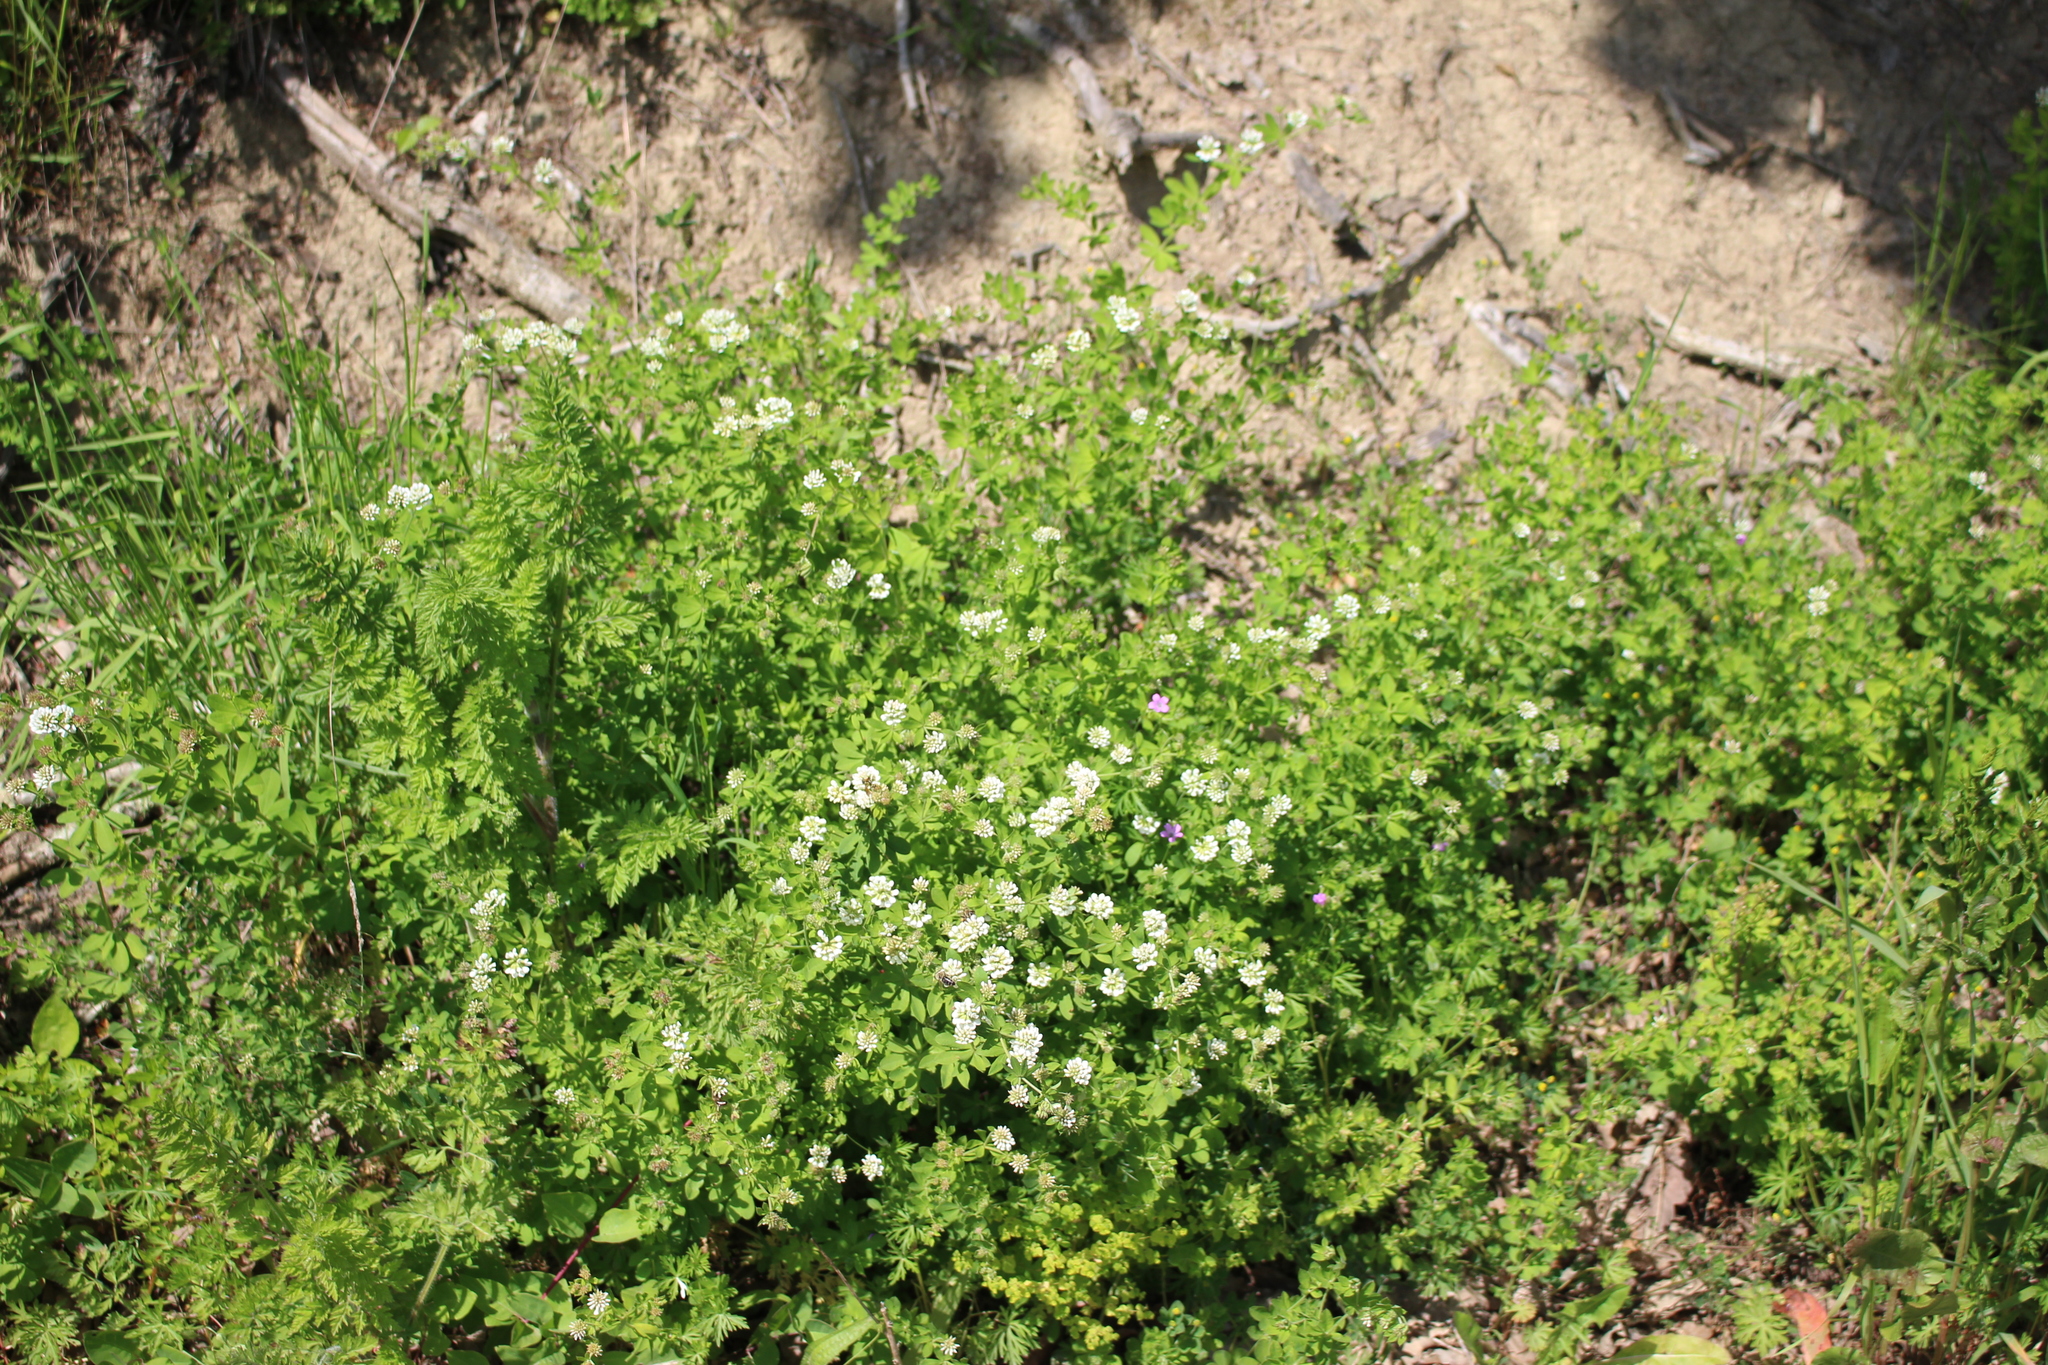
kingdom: Plantae
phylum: Tracheophyta
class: Magnoliopsida
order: Fabales
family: Fabaceae
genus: Lotus
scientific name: Lotus graecus
